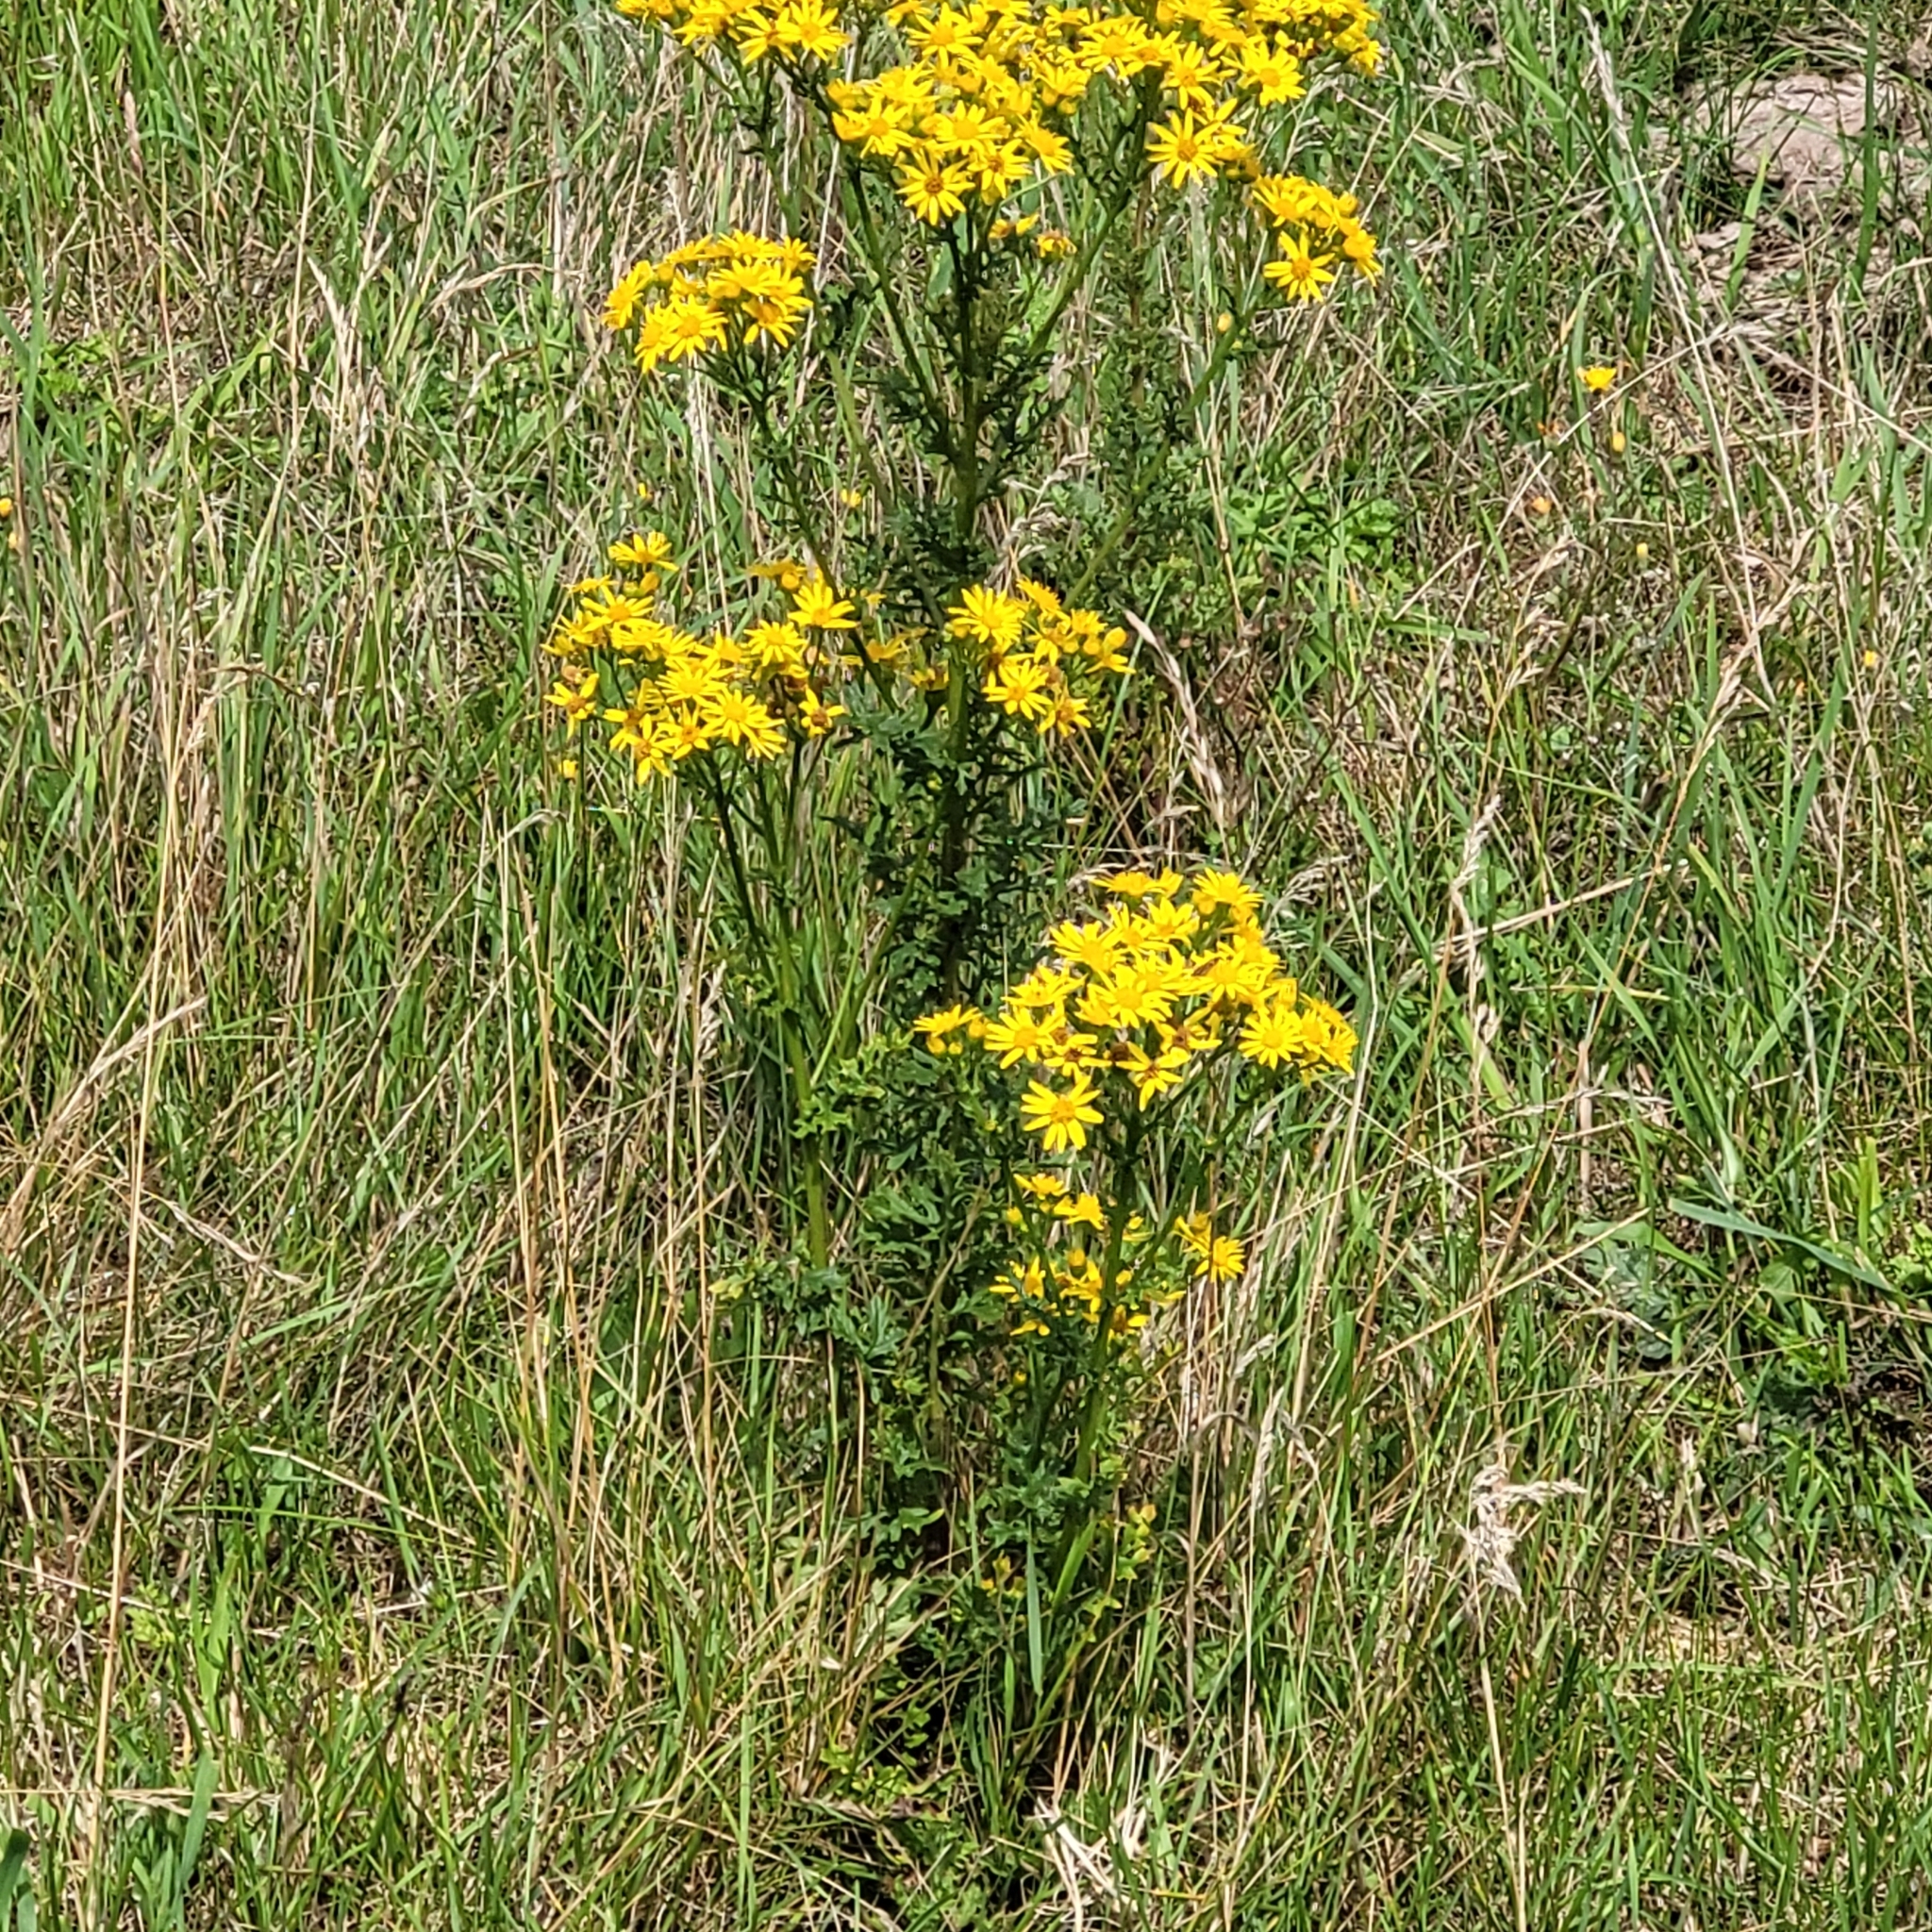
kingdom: Plantae
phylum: Tracheophyta
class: Magnoliopsida
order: Asterales
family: Asteraceae
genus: Jacobaea
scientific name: Jacobaea vulgaris
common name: Stinking willie
